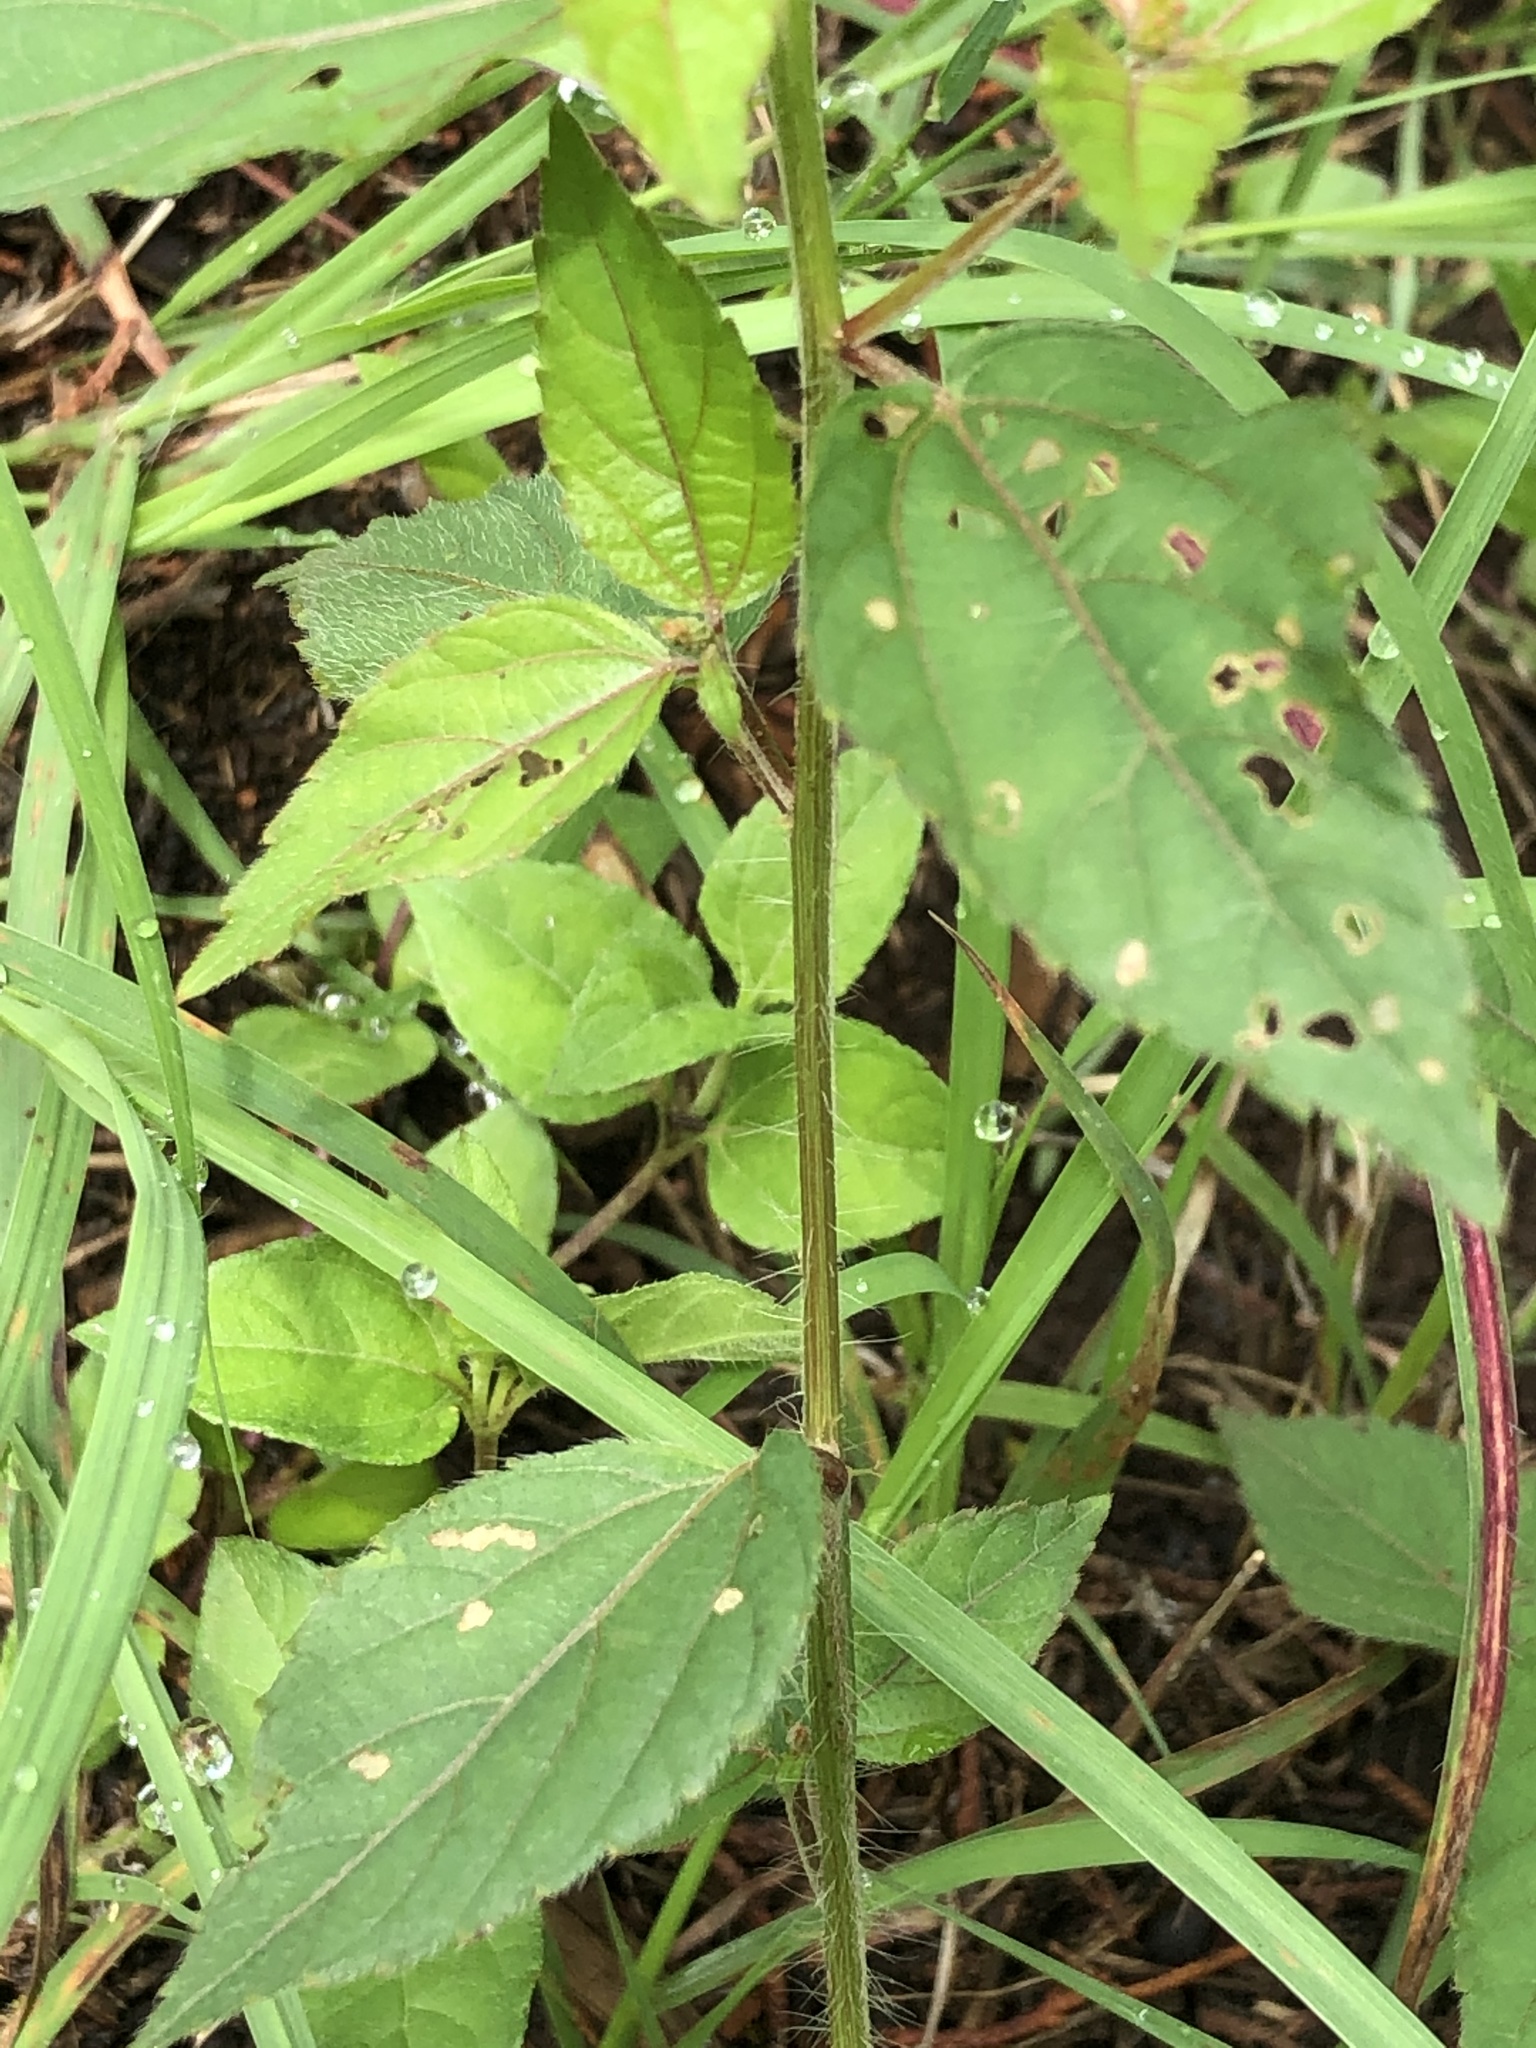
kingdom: Plantae
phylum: Tracheophyta
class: Magnoliopsida
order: Malpighiales
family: Euphorbiaceae
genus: Acalypha
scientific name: Acalypha phleoides
